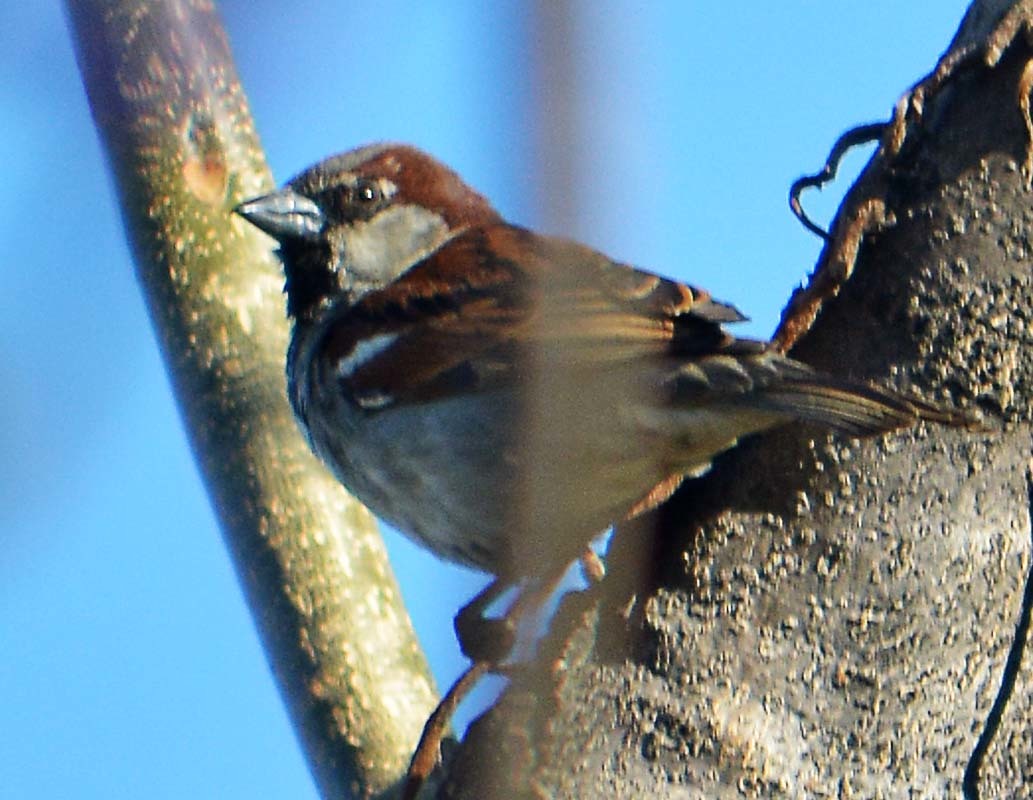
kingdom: Animalia
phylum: Chordata
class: Aves
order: Passeriformes
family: Passeridae
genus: Passer
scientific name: Passer domesticus
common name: House sparrow
